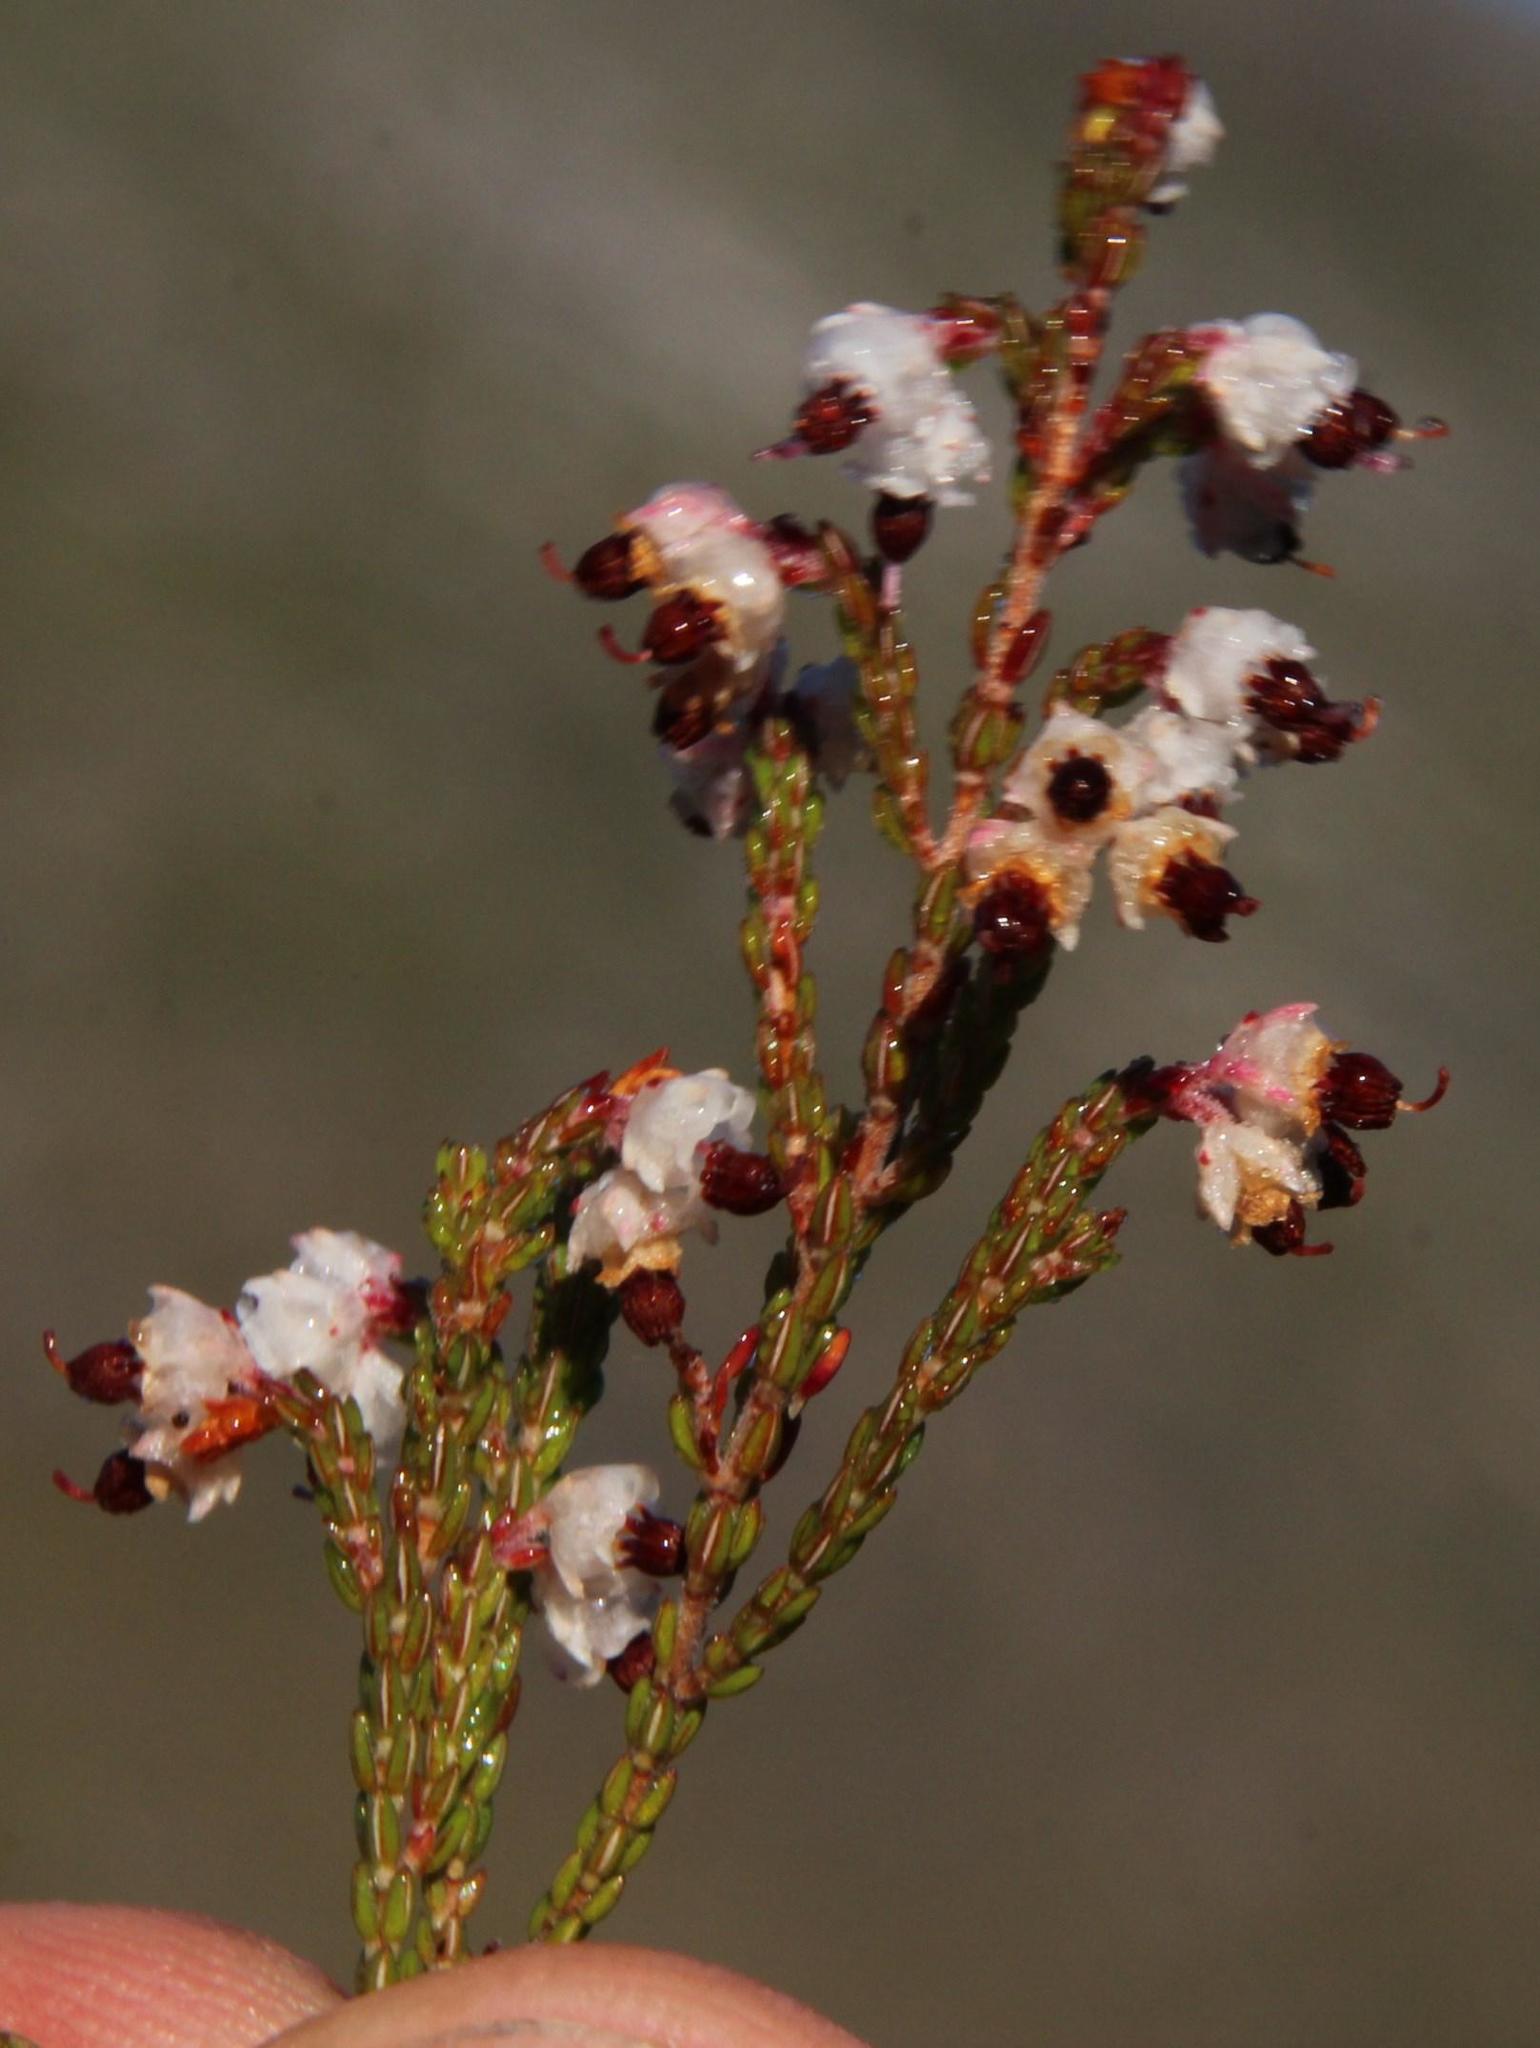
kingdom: Plantae
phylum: Tracheophyta
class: Magnoliopsida
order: Ericales
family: Ericaceae
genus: Erica
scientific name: Erica triceps
